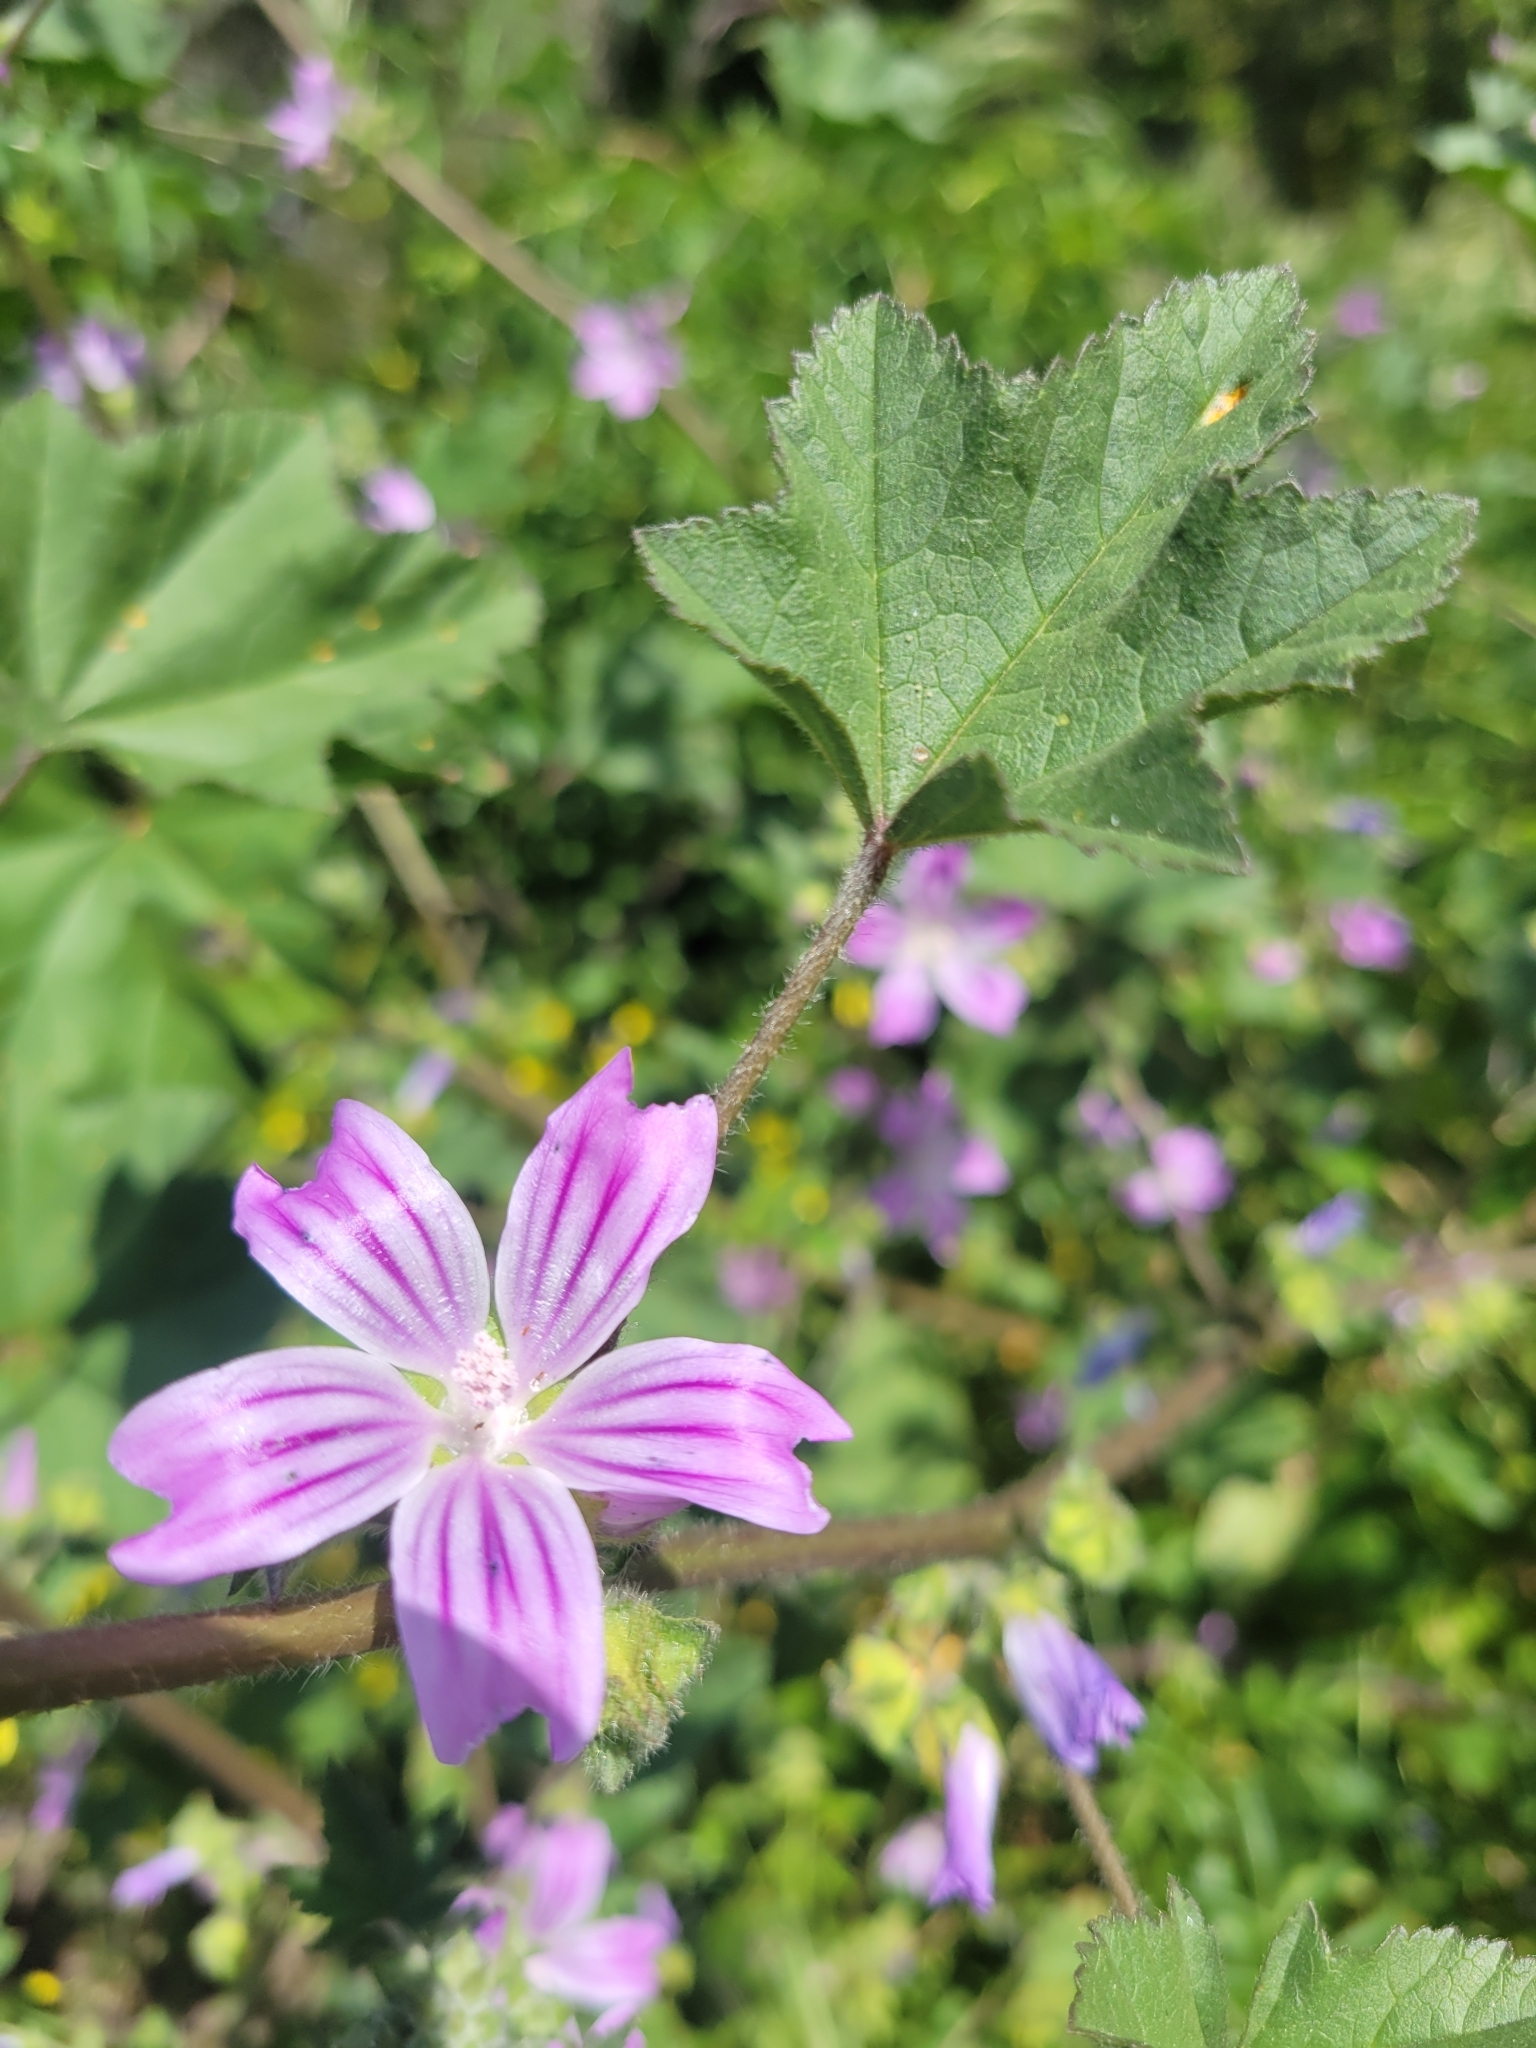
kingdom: Plantae
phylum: Tracheophyta
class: Magnoliopsida
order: Malvales
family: Malvaceae
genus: Malva
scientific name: Malva
